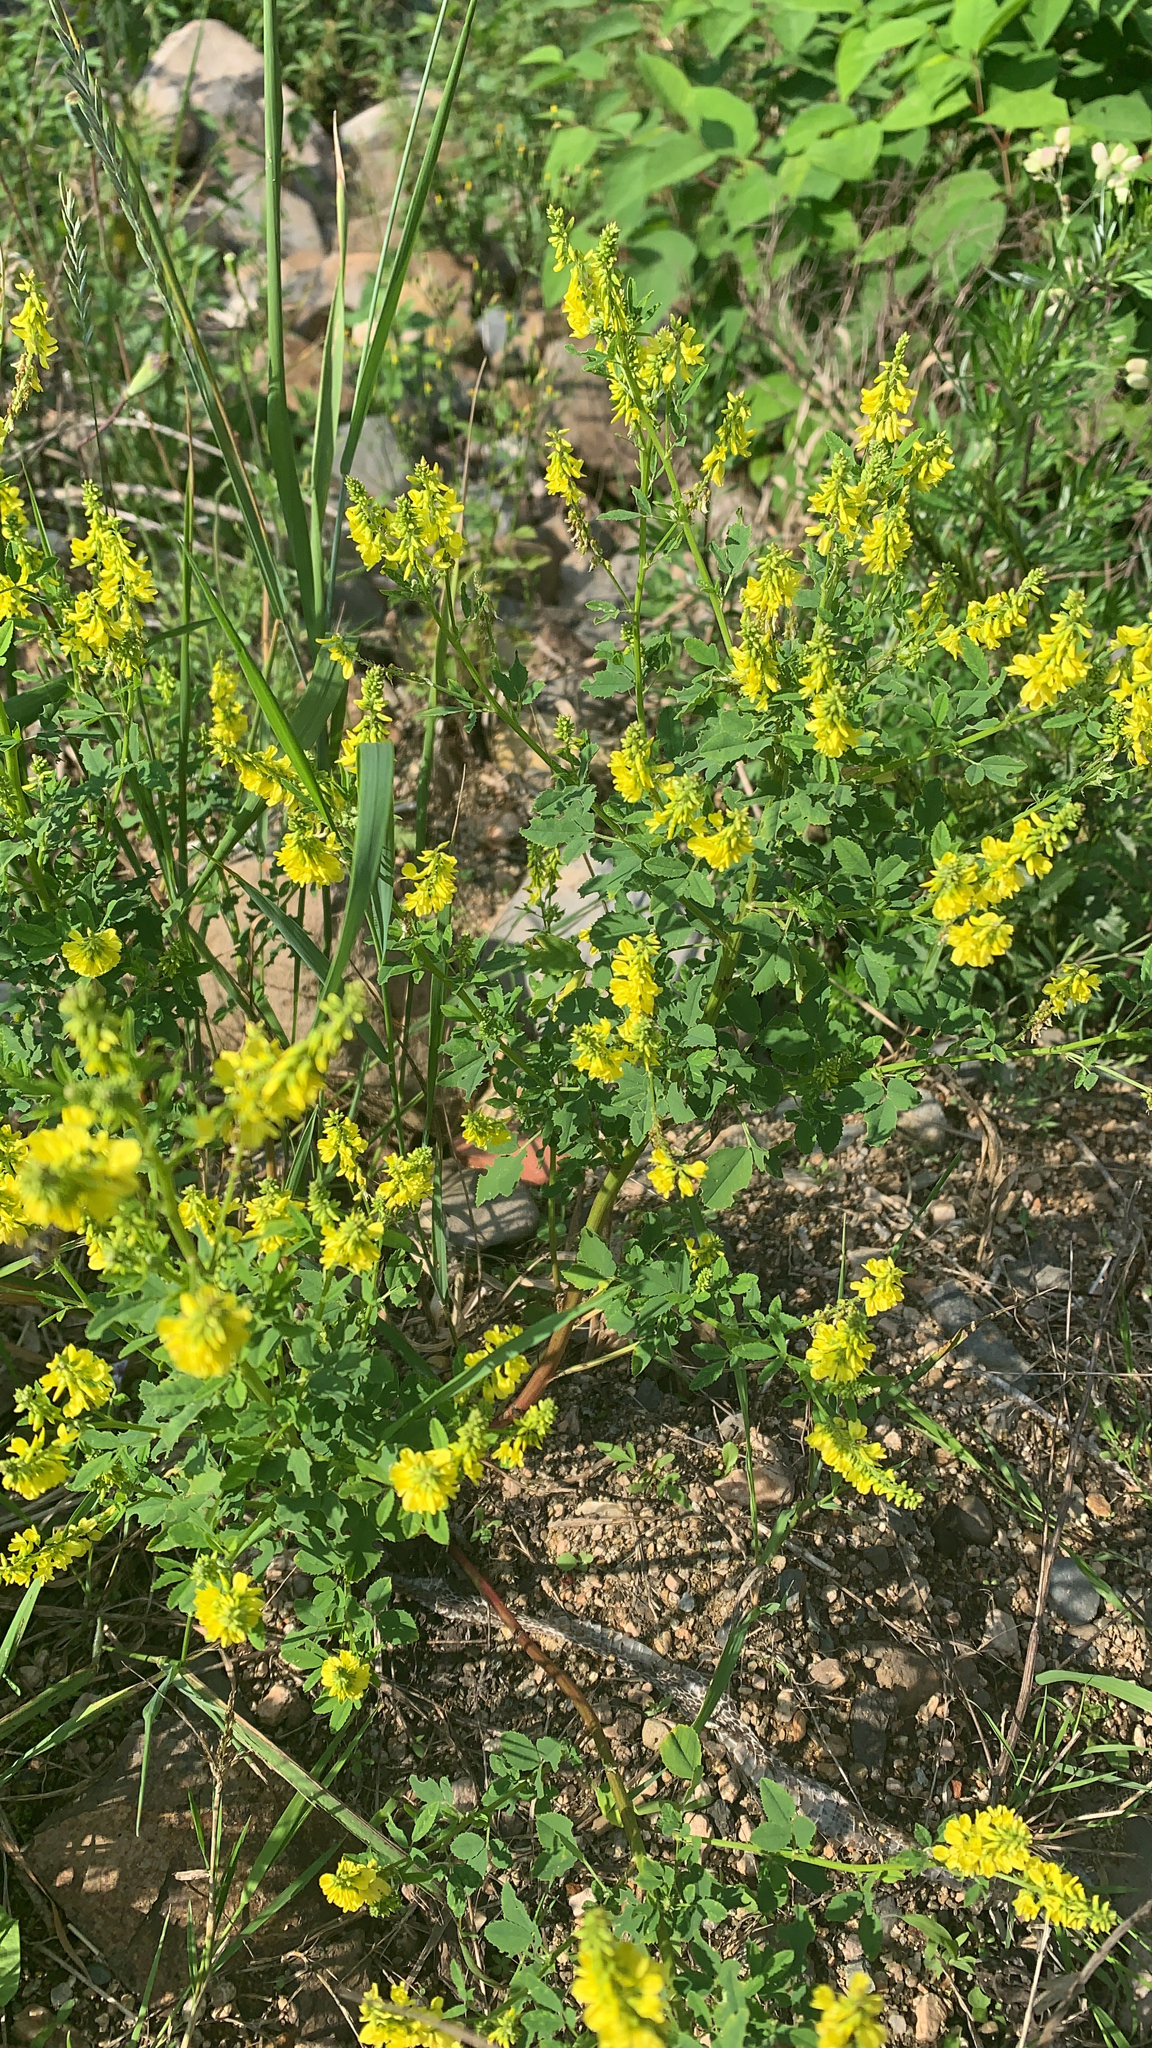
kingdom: Plantae
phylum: Tracheophyta
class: Magnoliopsida
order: Fabales
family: Fabaceae
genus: Melilotus
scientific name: Melilotus officinalis
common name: Sweetclover
